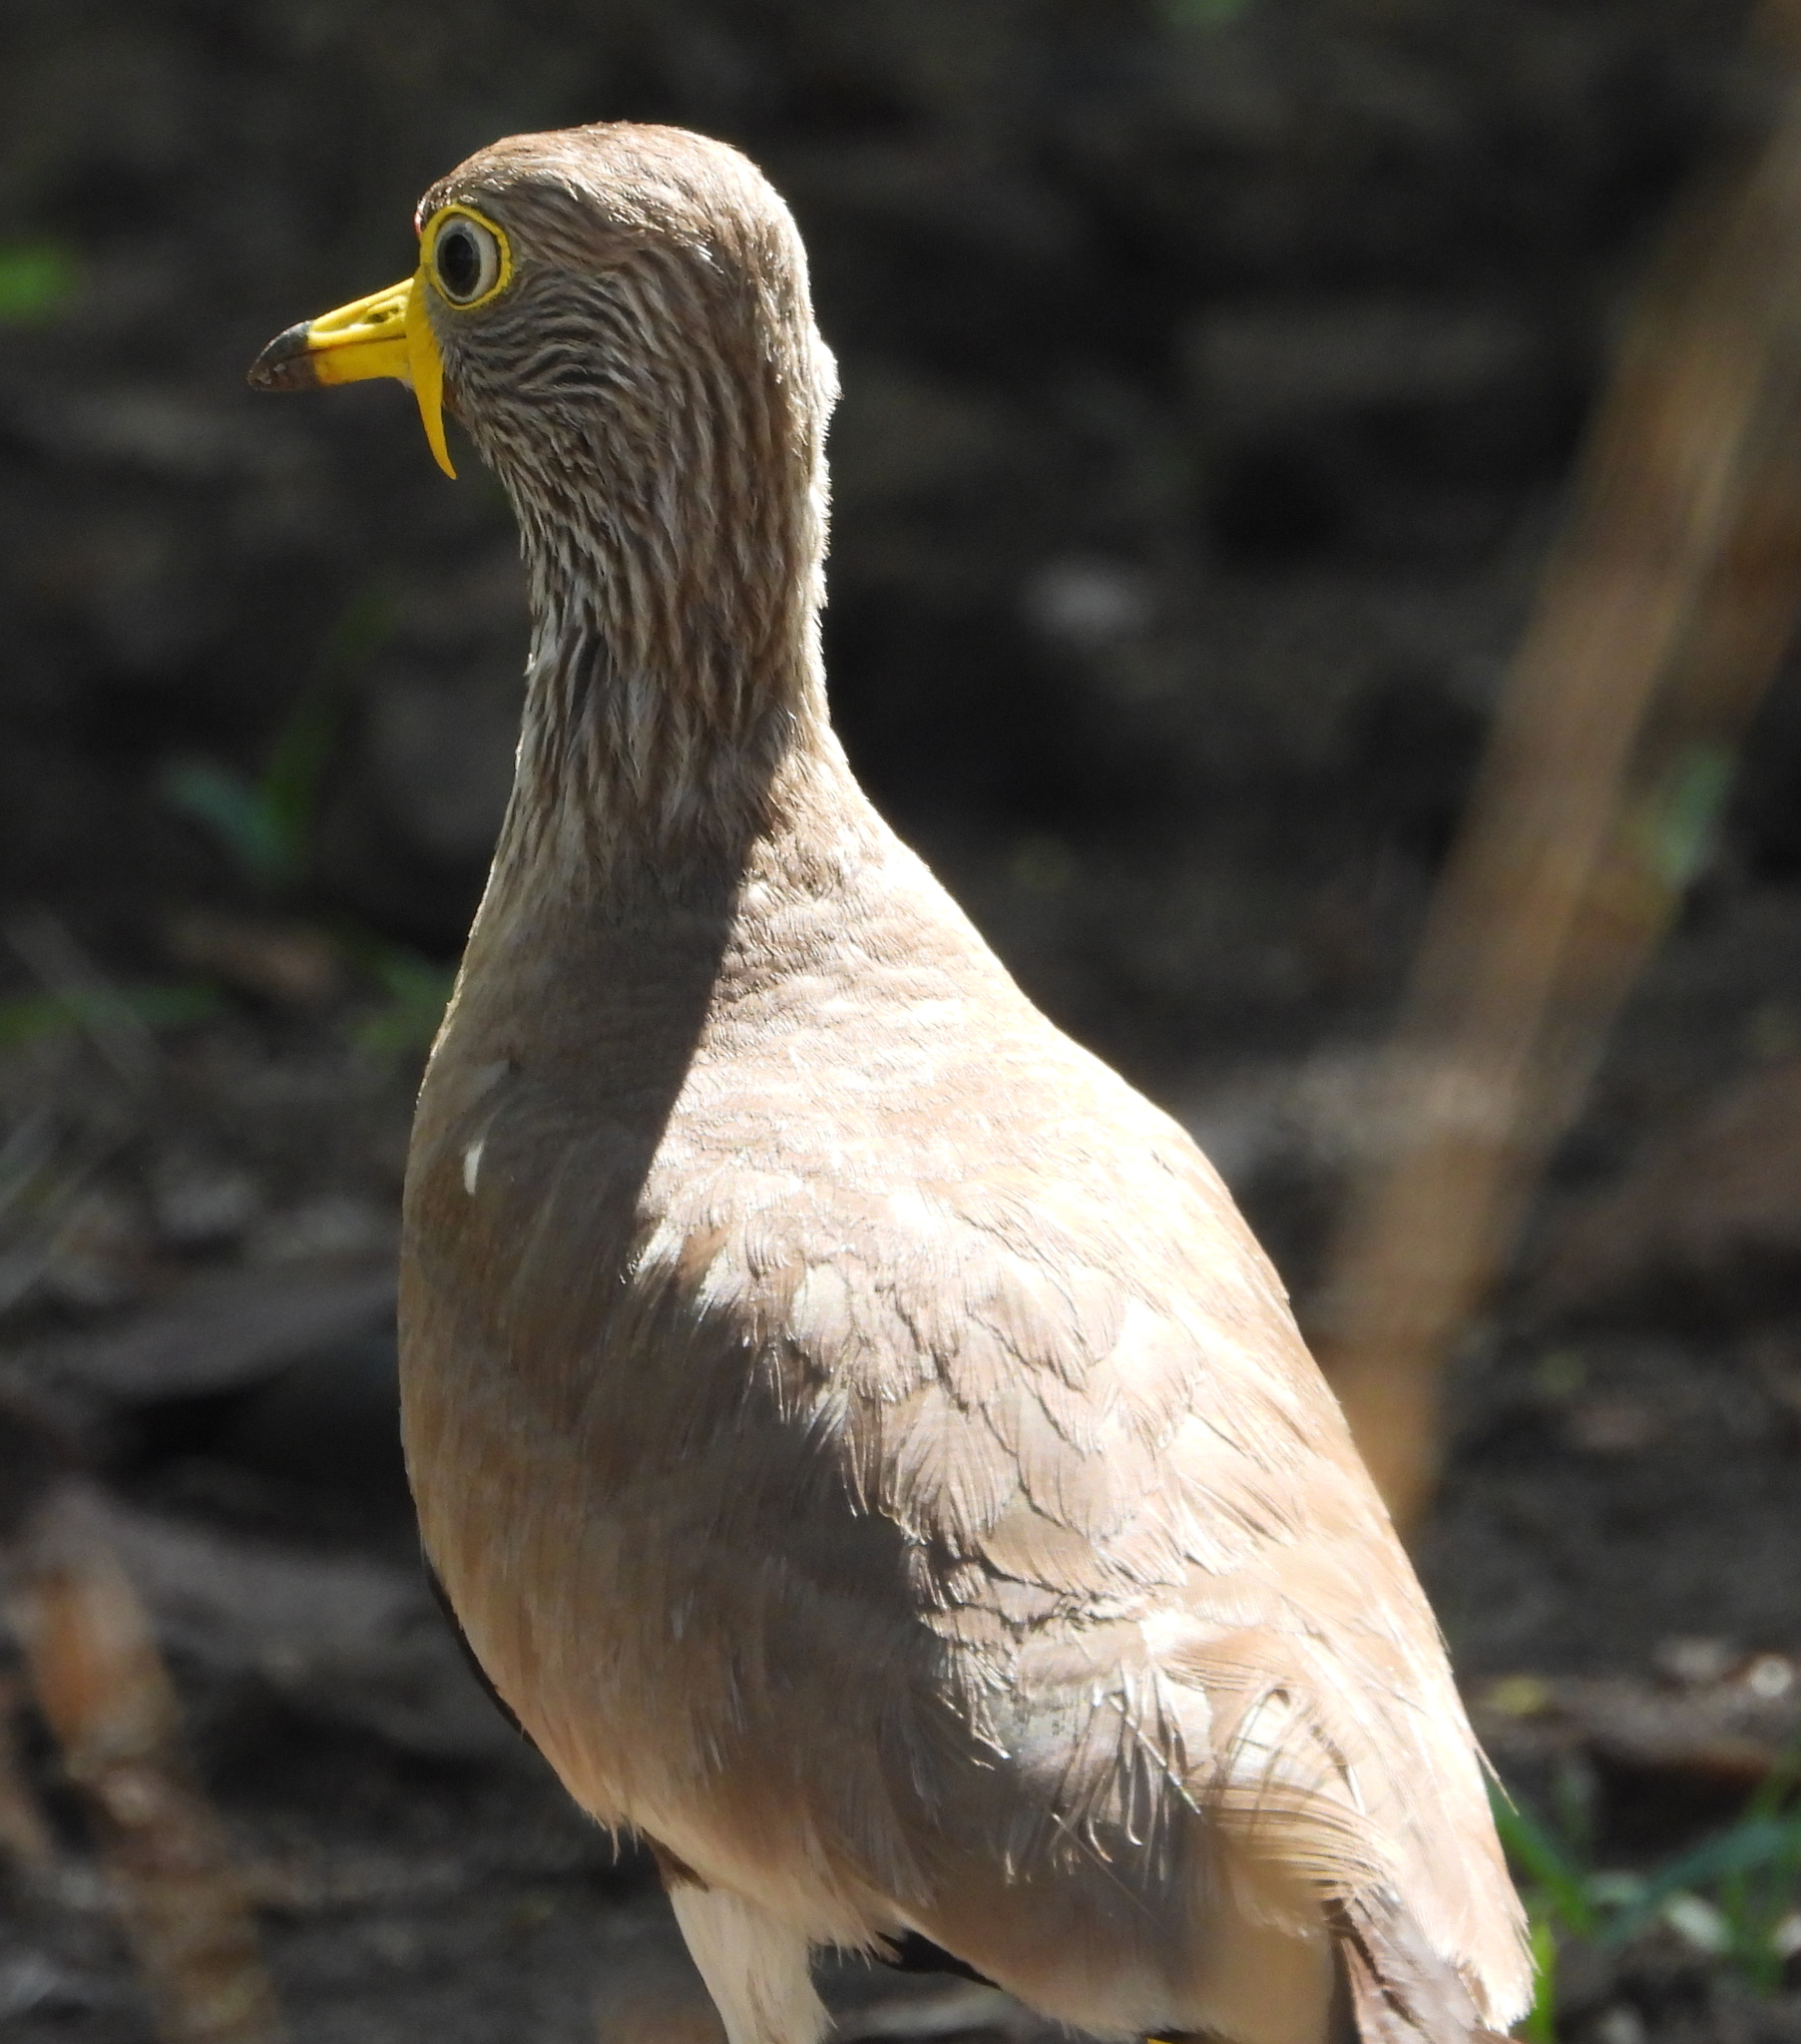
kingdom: Animalia
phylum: Chordata
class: Aves
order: Charadriiformes
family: Charadriidae
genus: Vanellus
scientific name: Vanellus senegallus
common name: African wattled lapwing
